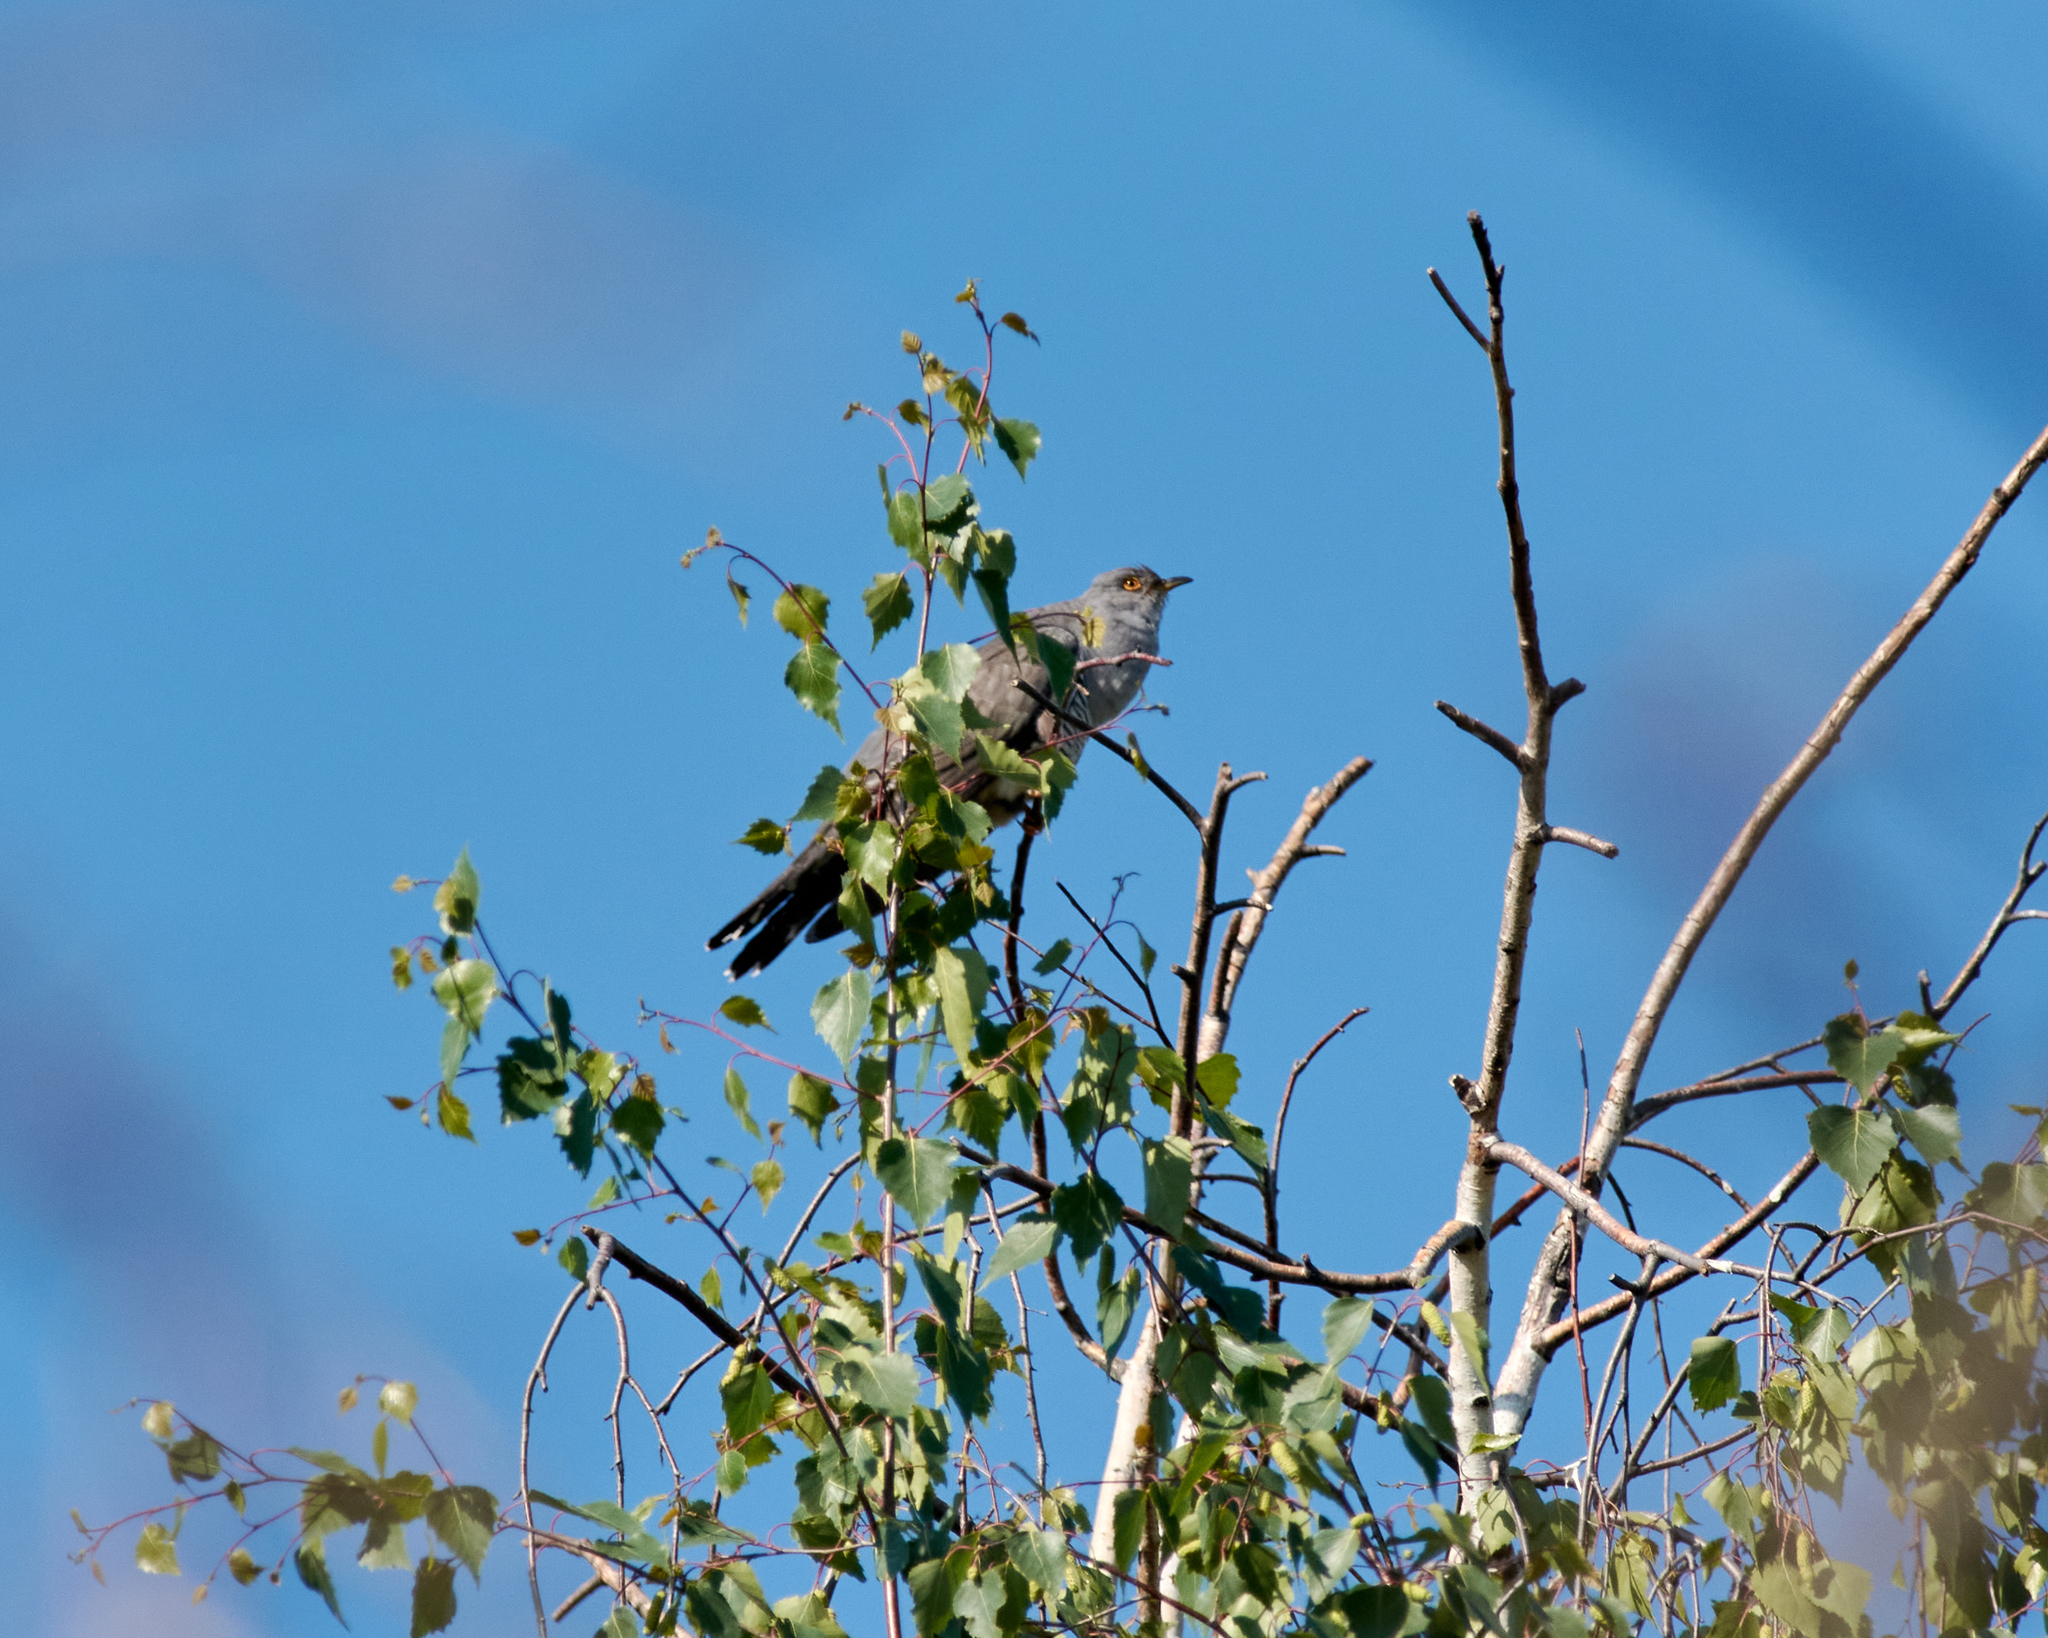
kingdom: Animalia
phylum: Chordata
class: Aves
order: Cuculiformes
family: Cuculidae
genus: Cuculus
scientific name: Cuculus canorus
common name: Common cuckoo
